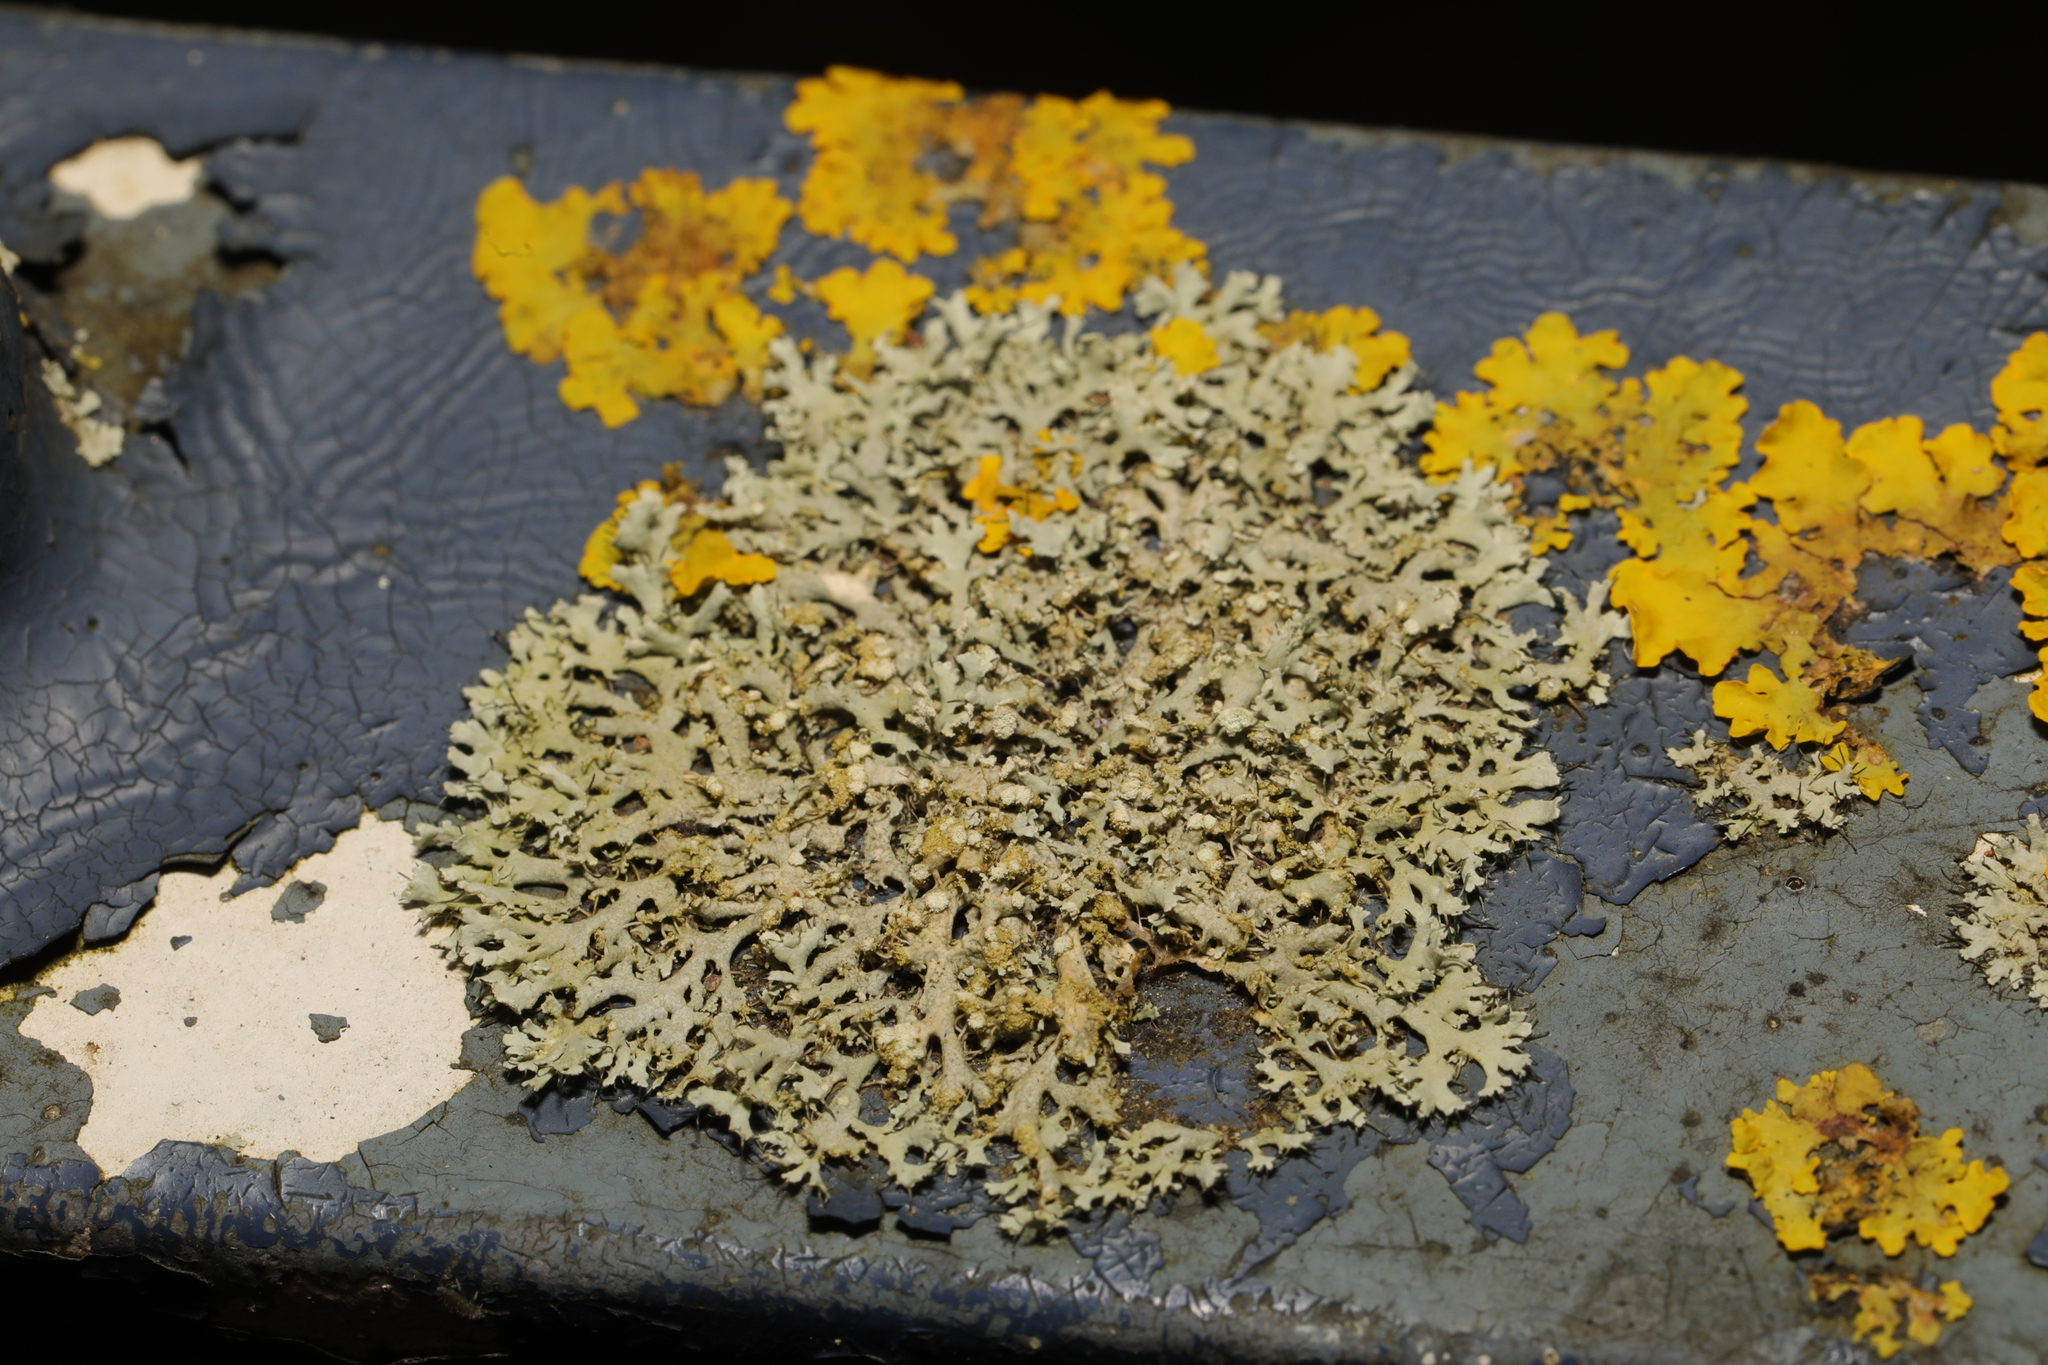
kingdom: Fungi
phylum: Ascomycota
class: Lecanoromycetes
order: Caliciales
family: Physciaceae
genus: Physcia
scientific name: Physcia tenella
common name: Fringed rosette lichen
